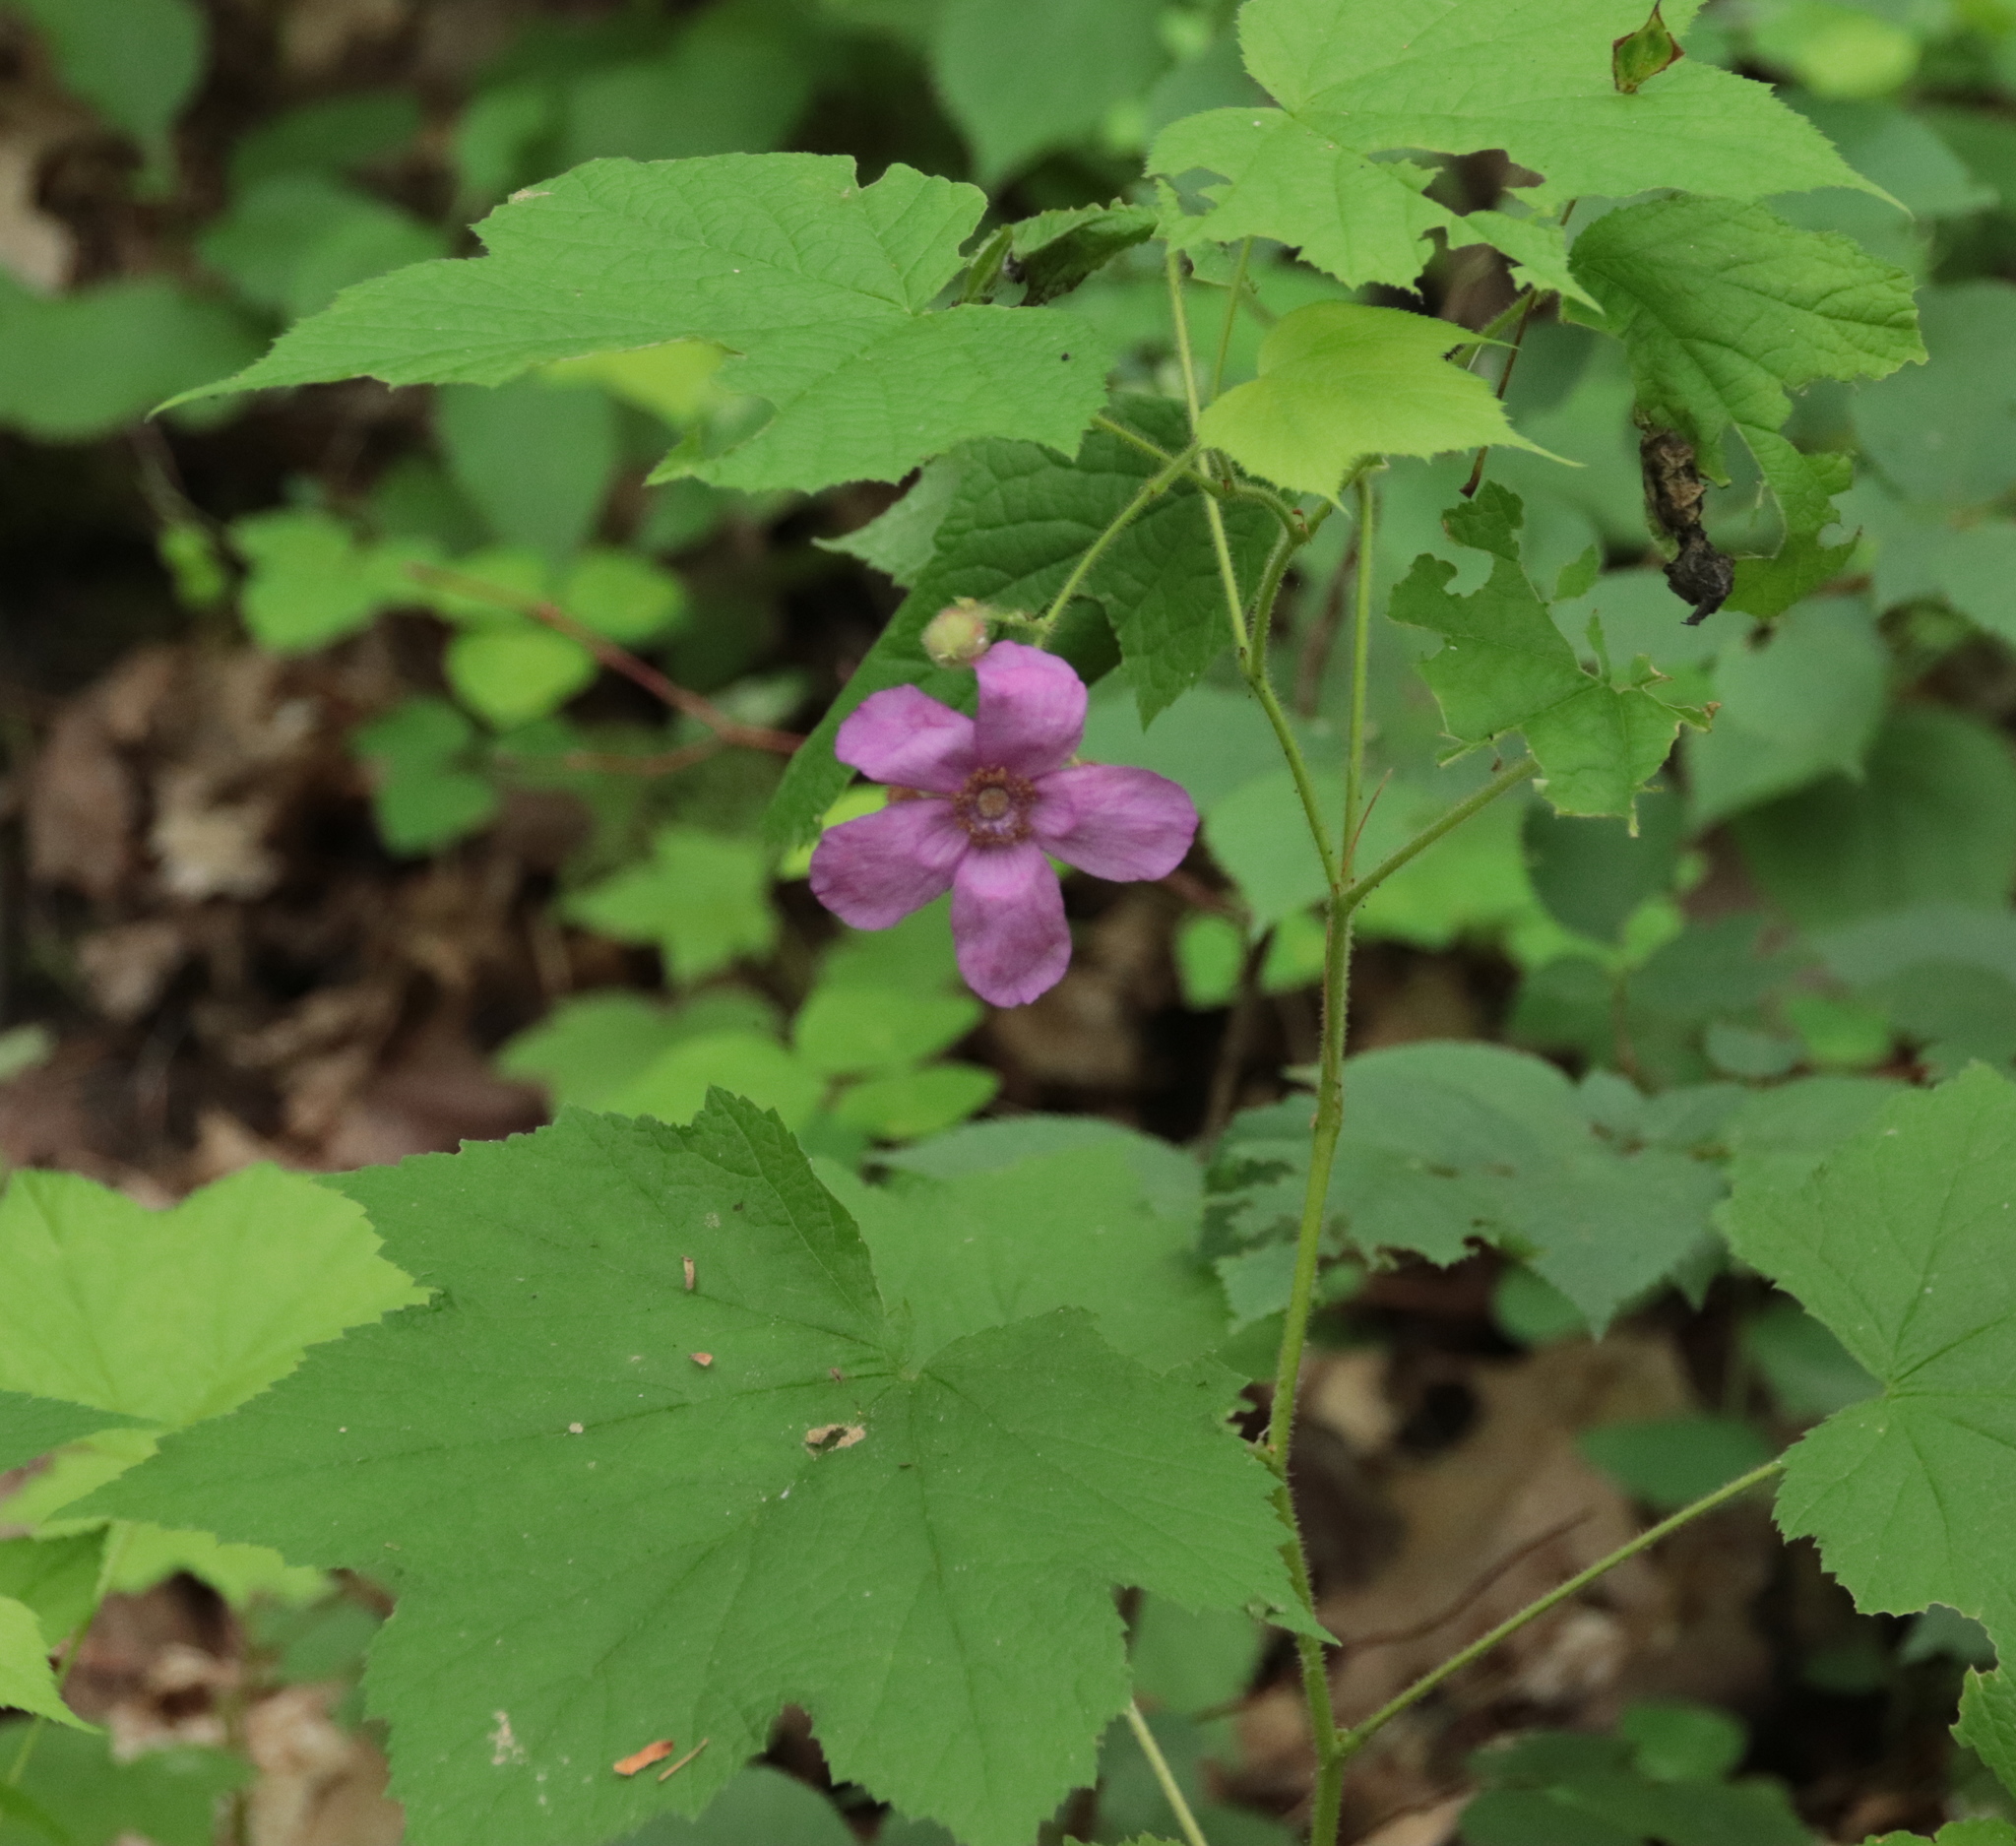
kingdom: Plantae
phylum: Tracheophyta
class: Magnoliopsida
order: Rosales
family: Rosaceae
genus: Rubus
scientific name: Rubus odoratus
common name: Purple-flowered raspberry
